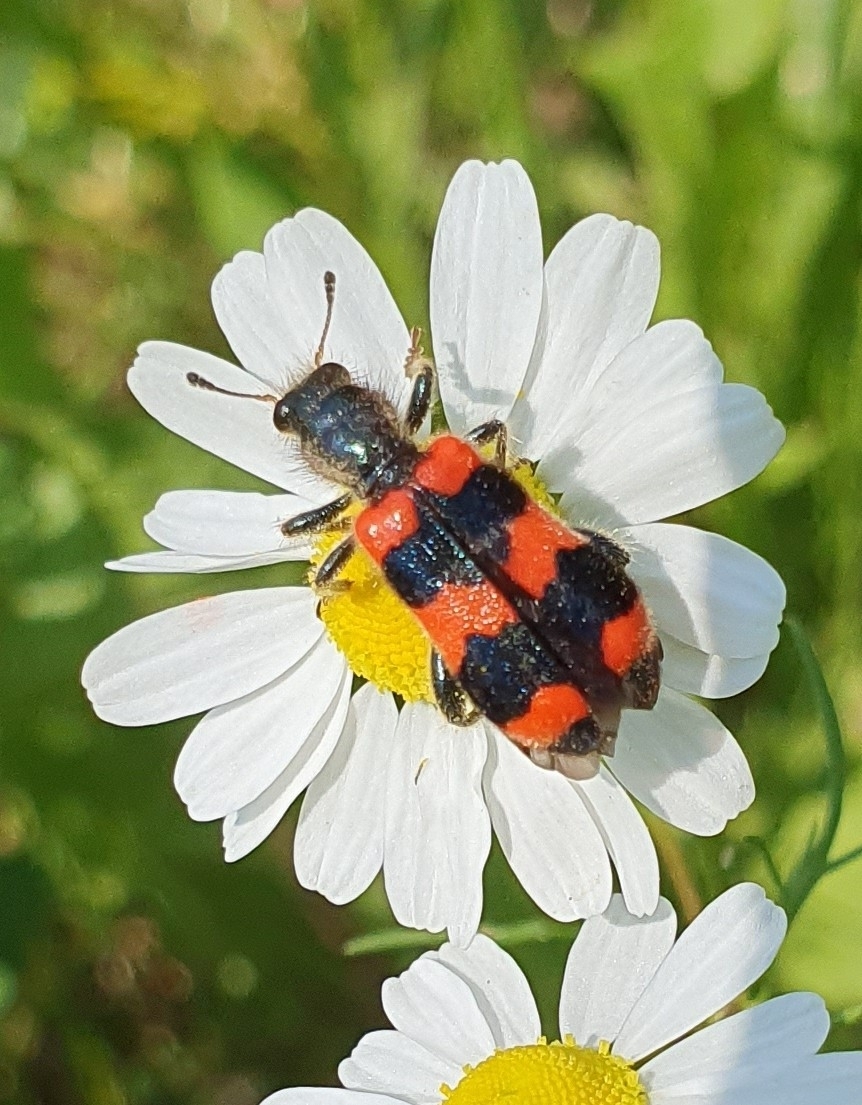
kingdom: Animalia
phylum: Arthropoda
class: Insecta
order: Coleoptera
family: Cleridae
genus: Trichodes
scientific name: Trichodes apiarius
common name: Bee-eating beetle
